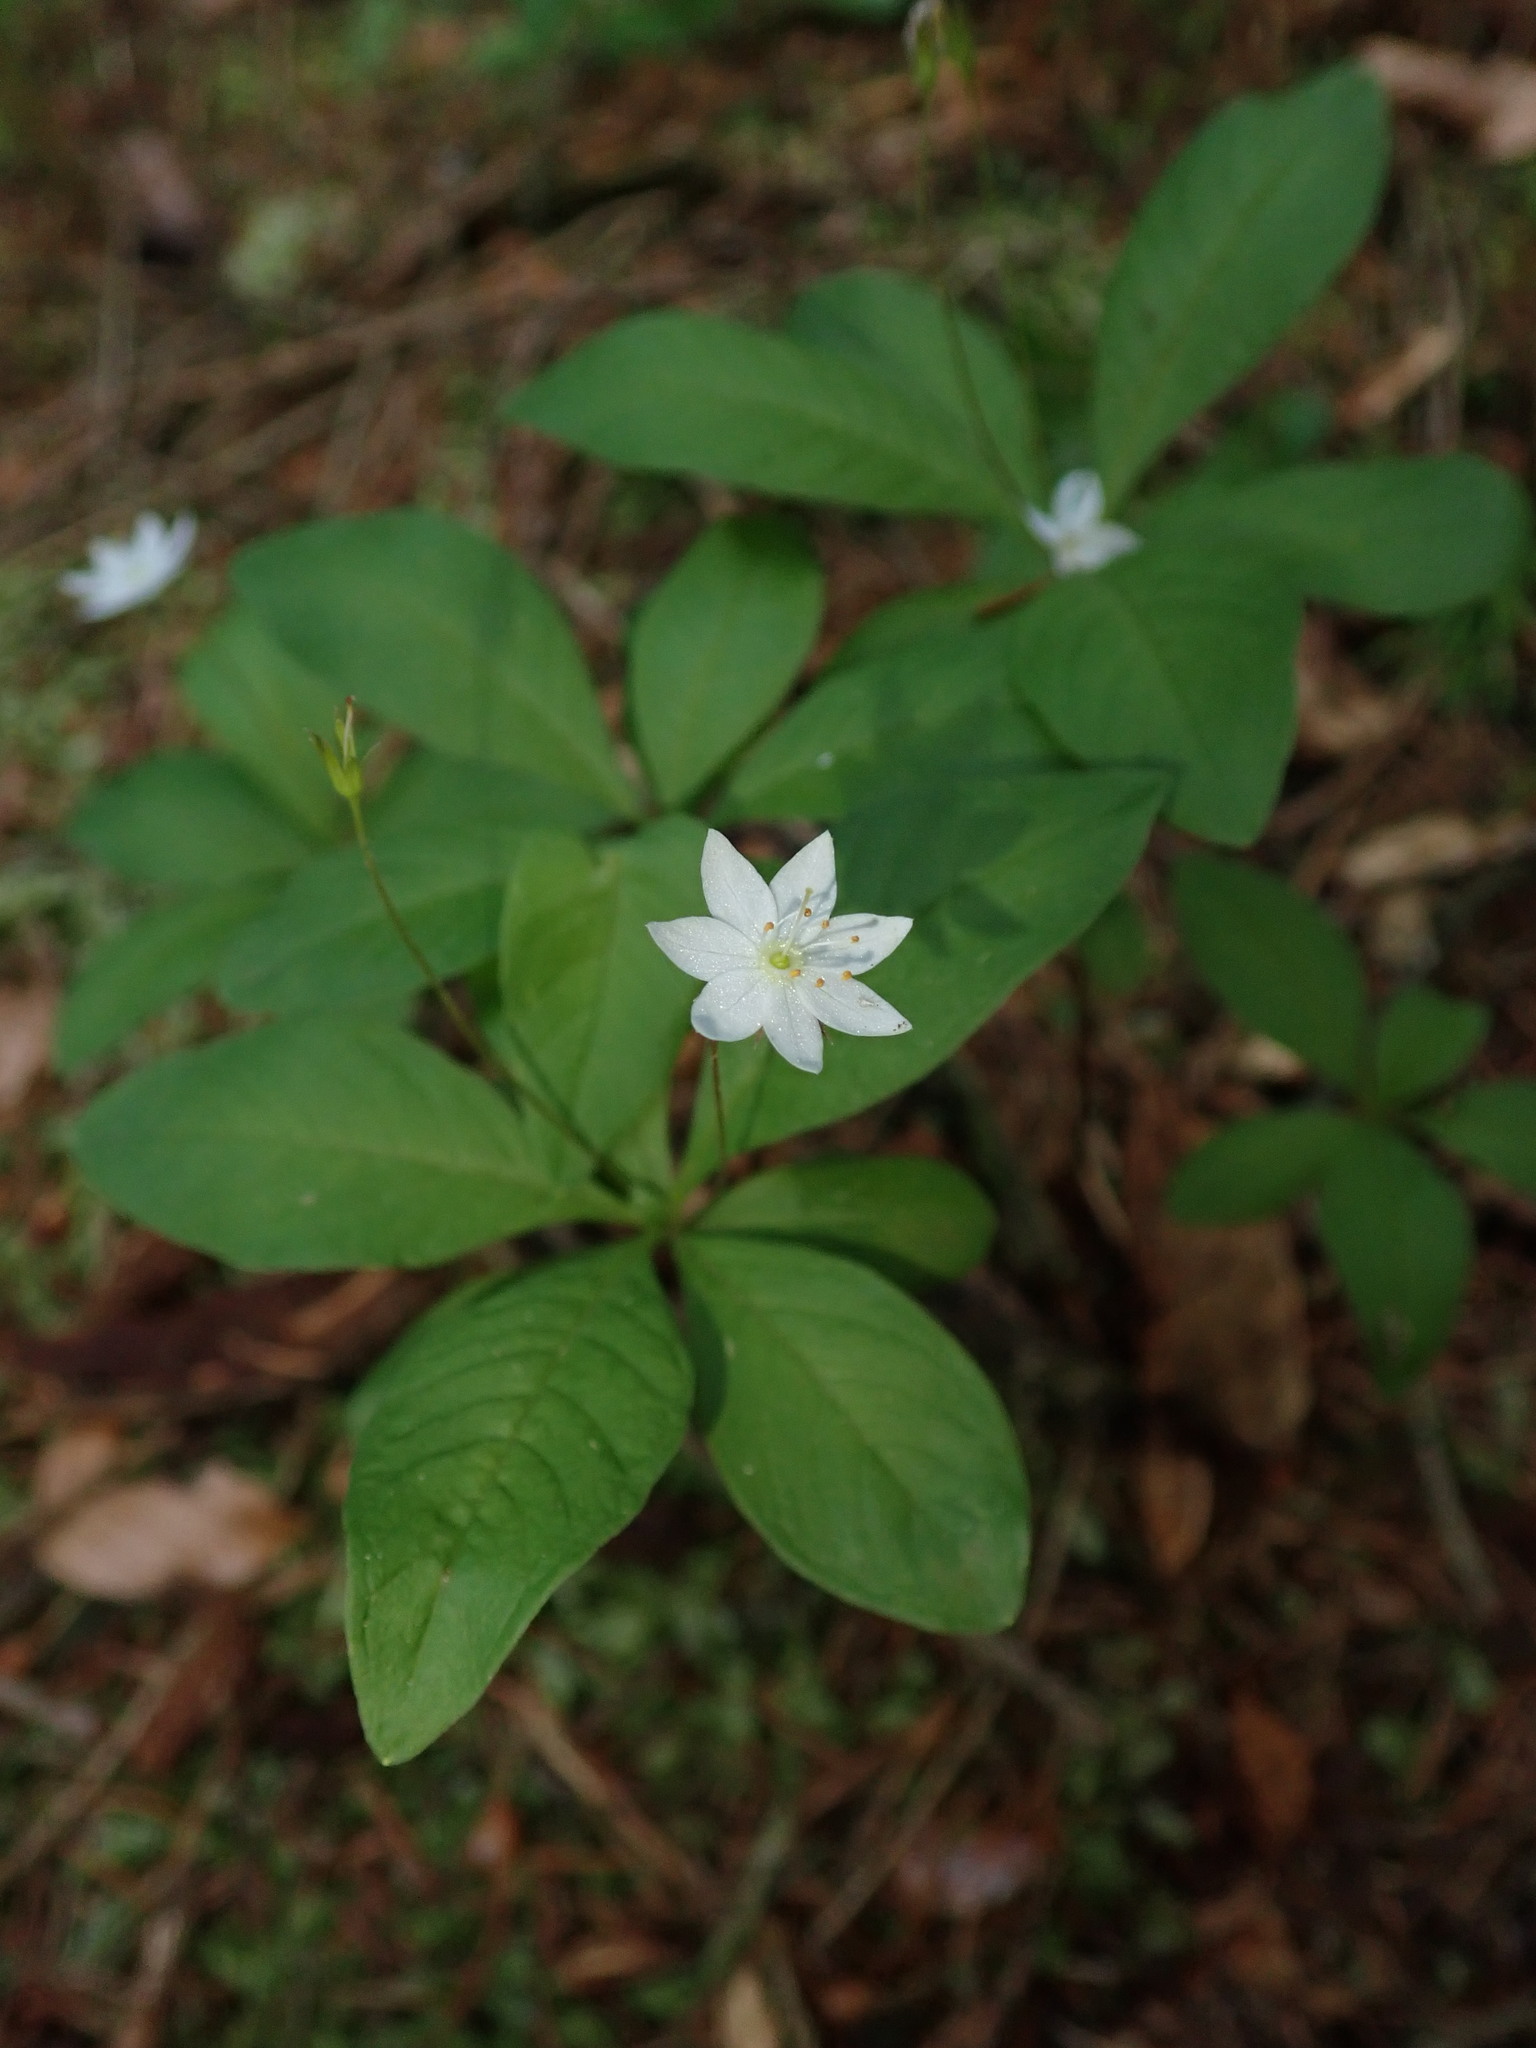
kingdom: Plantae
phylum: Tracheophyta
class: Magnoliopsida
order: Ericales
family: Primulaceae
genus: Lysimachia
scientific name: Lysimachia europaea
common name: Arctic starflower
